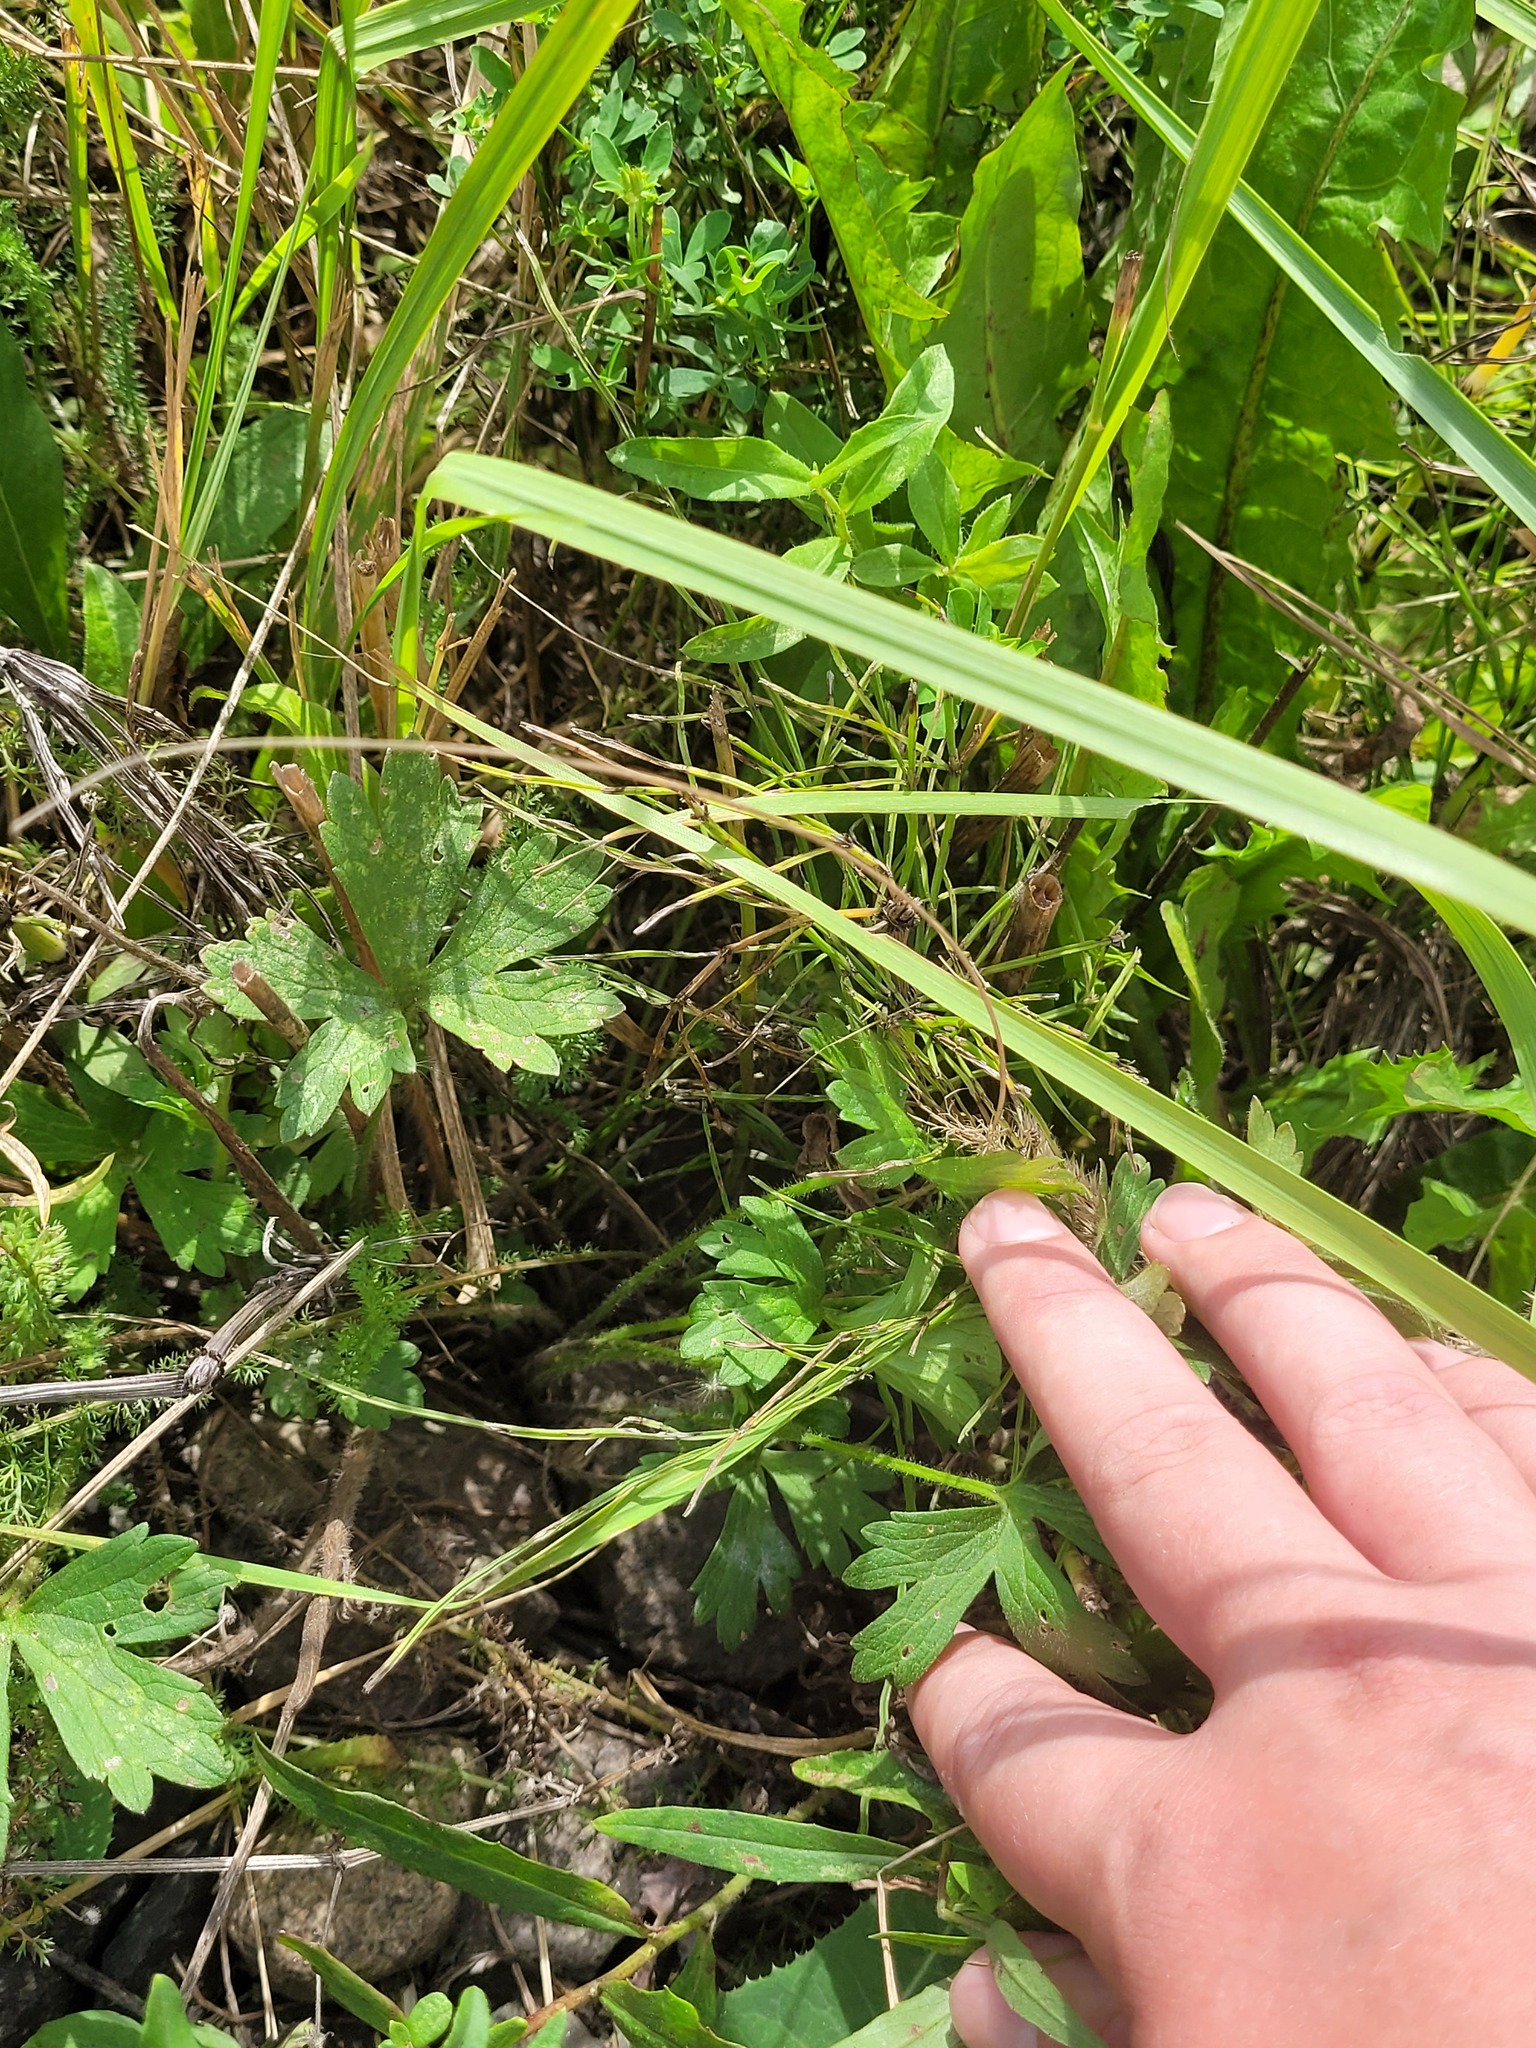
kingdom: Plantae
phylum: Tracheophyta
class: Magnoliopsida
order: Ranunculales
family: Ranunculaceae
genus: Ranunculus
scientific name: Ranunculus polyanthemos
